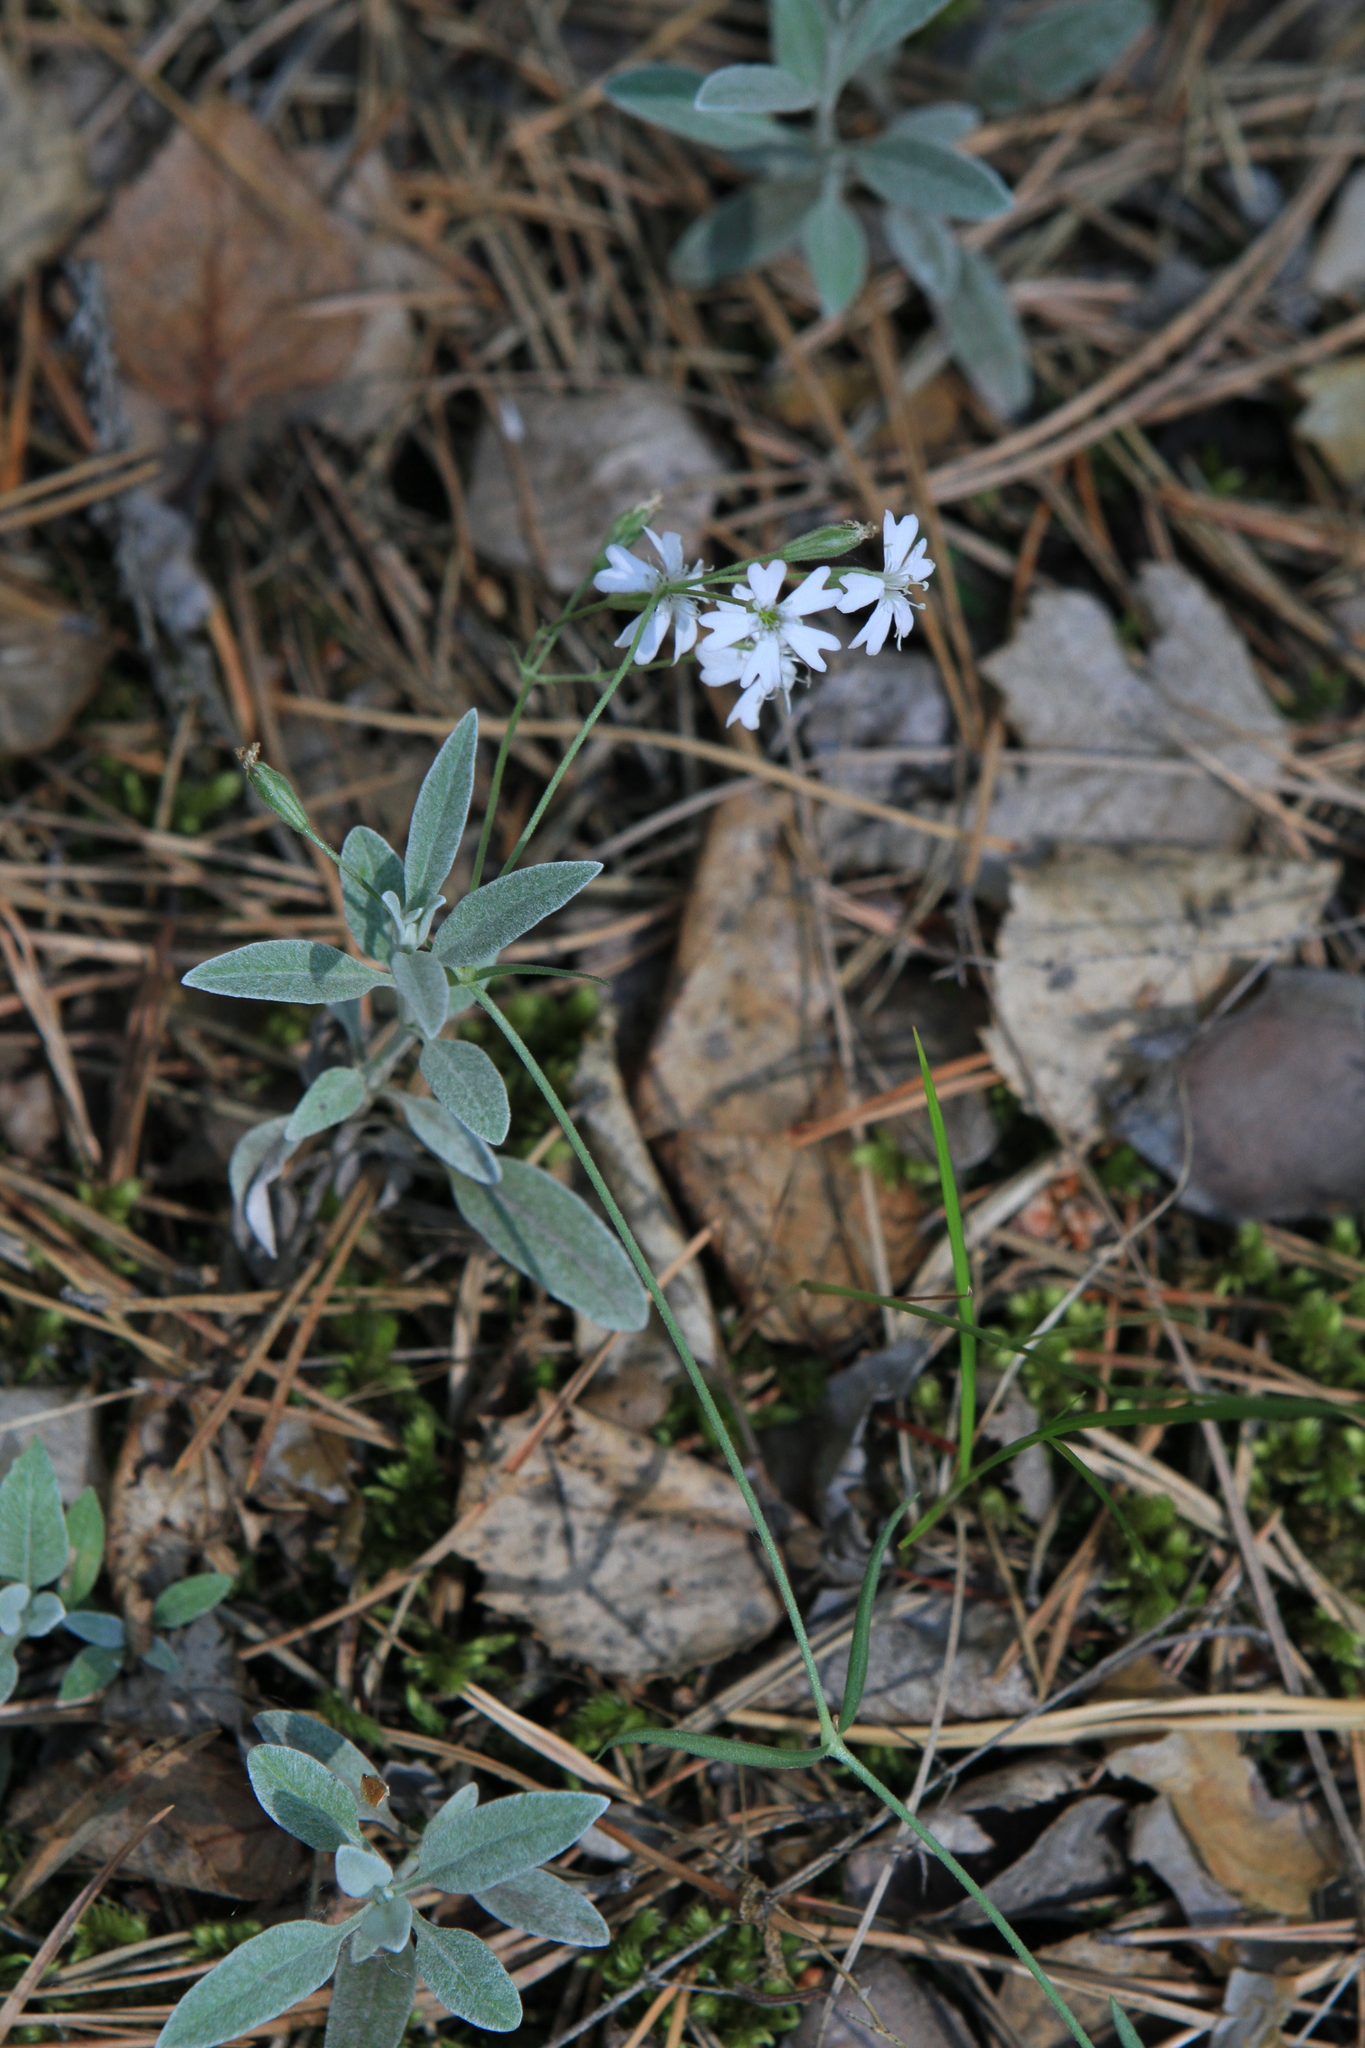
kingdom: Plantae
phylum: Tracheophyta
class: Magnoliopsida
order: Caryophyllales
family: Caryophyllaceae
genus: Silene
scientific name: Silene orientalimongolica
